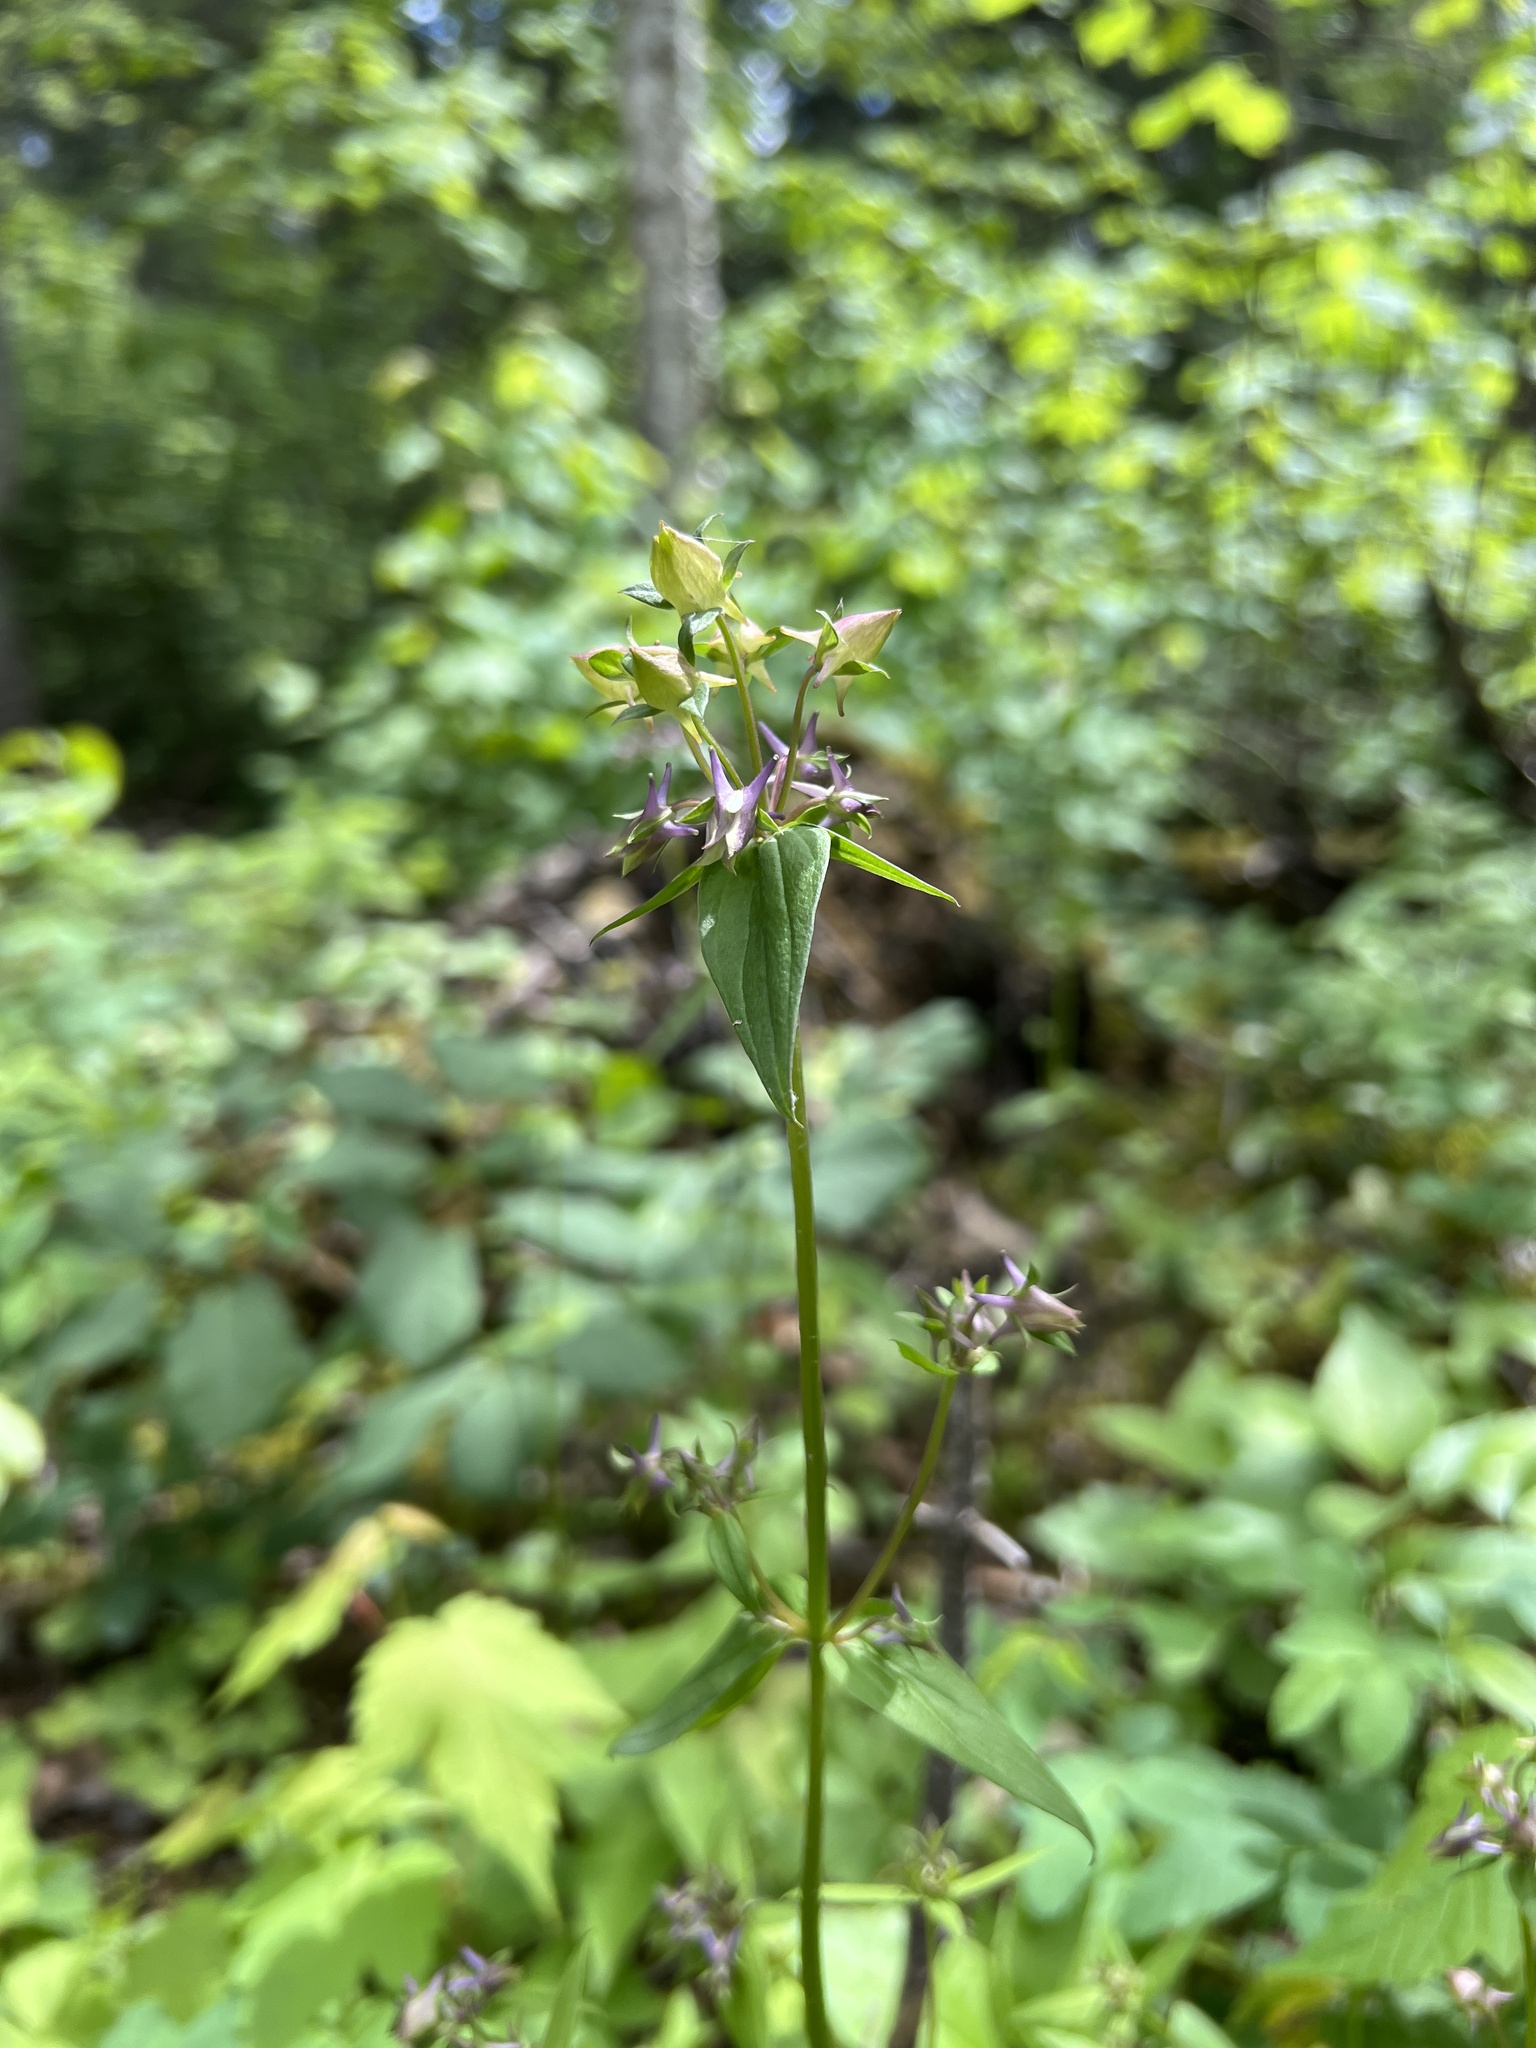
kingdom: Plantae
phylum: Tracheophyta
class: Magnoliopsida
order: Gentianales
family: Gentianaceae
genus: Halenia
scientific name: Halenia deflexa
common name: American spurred gentian
